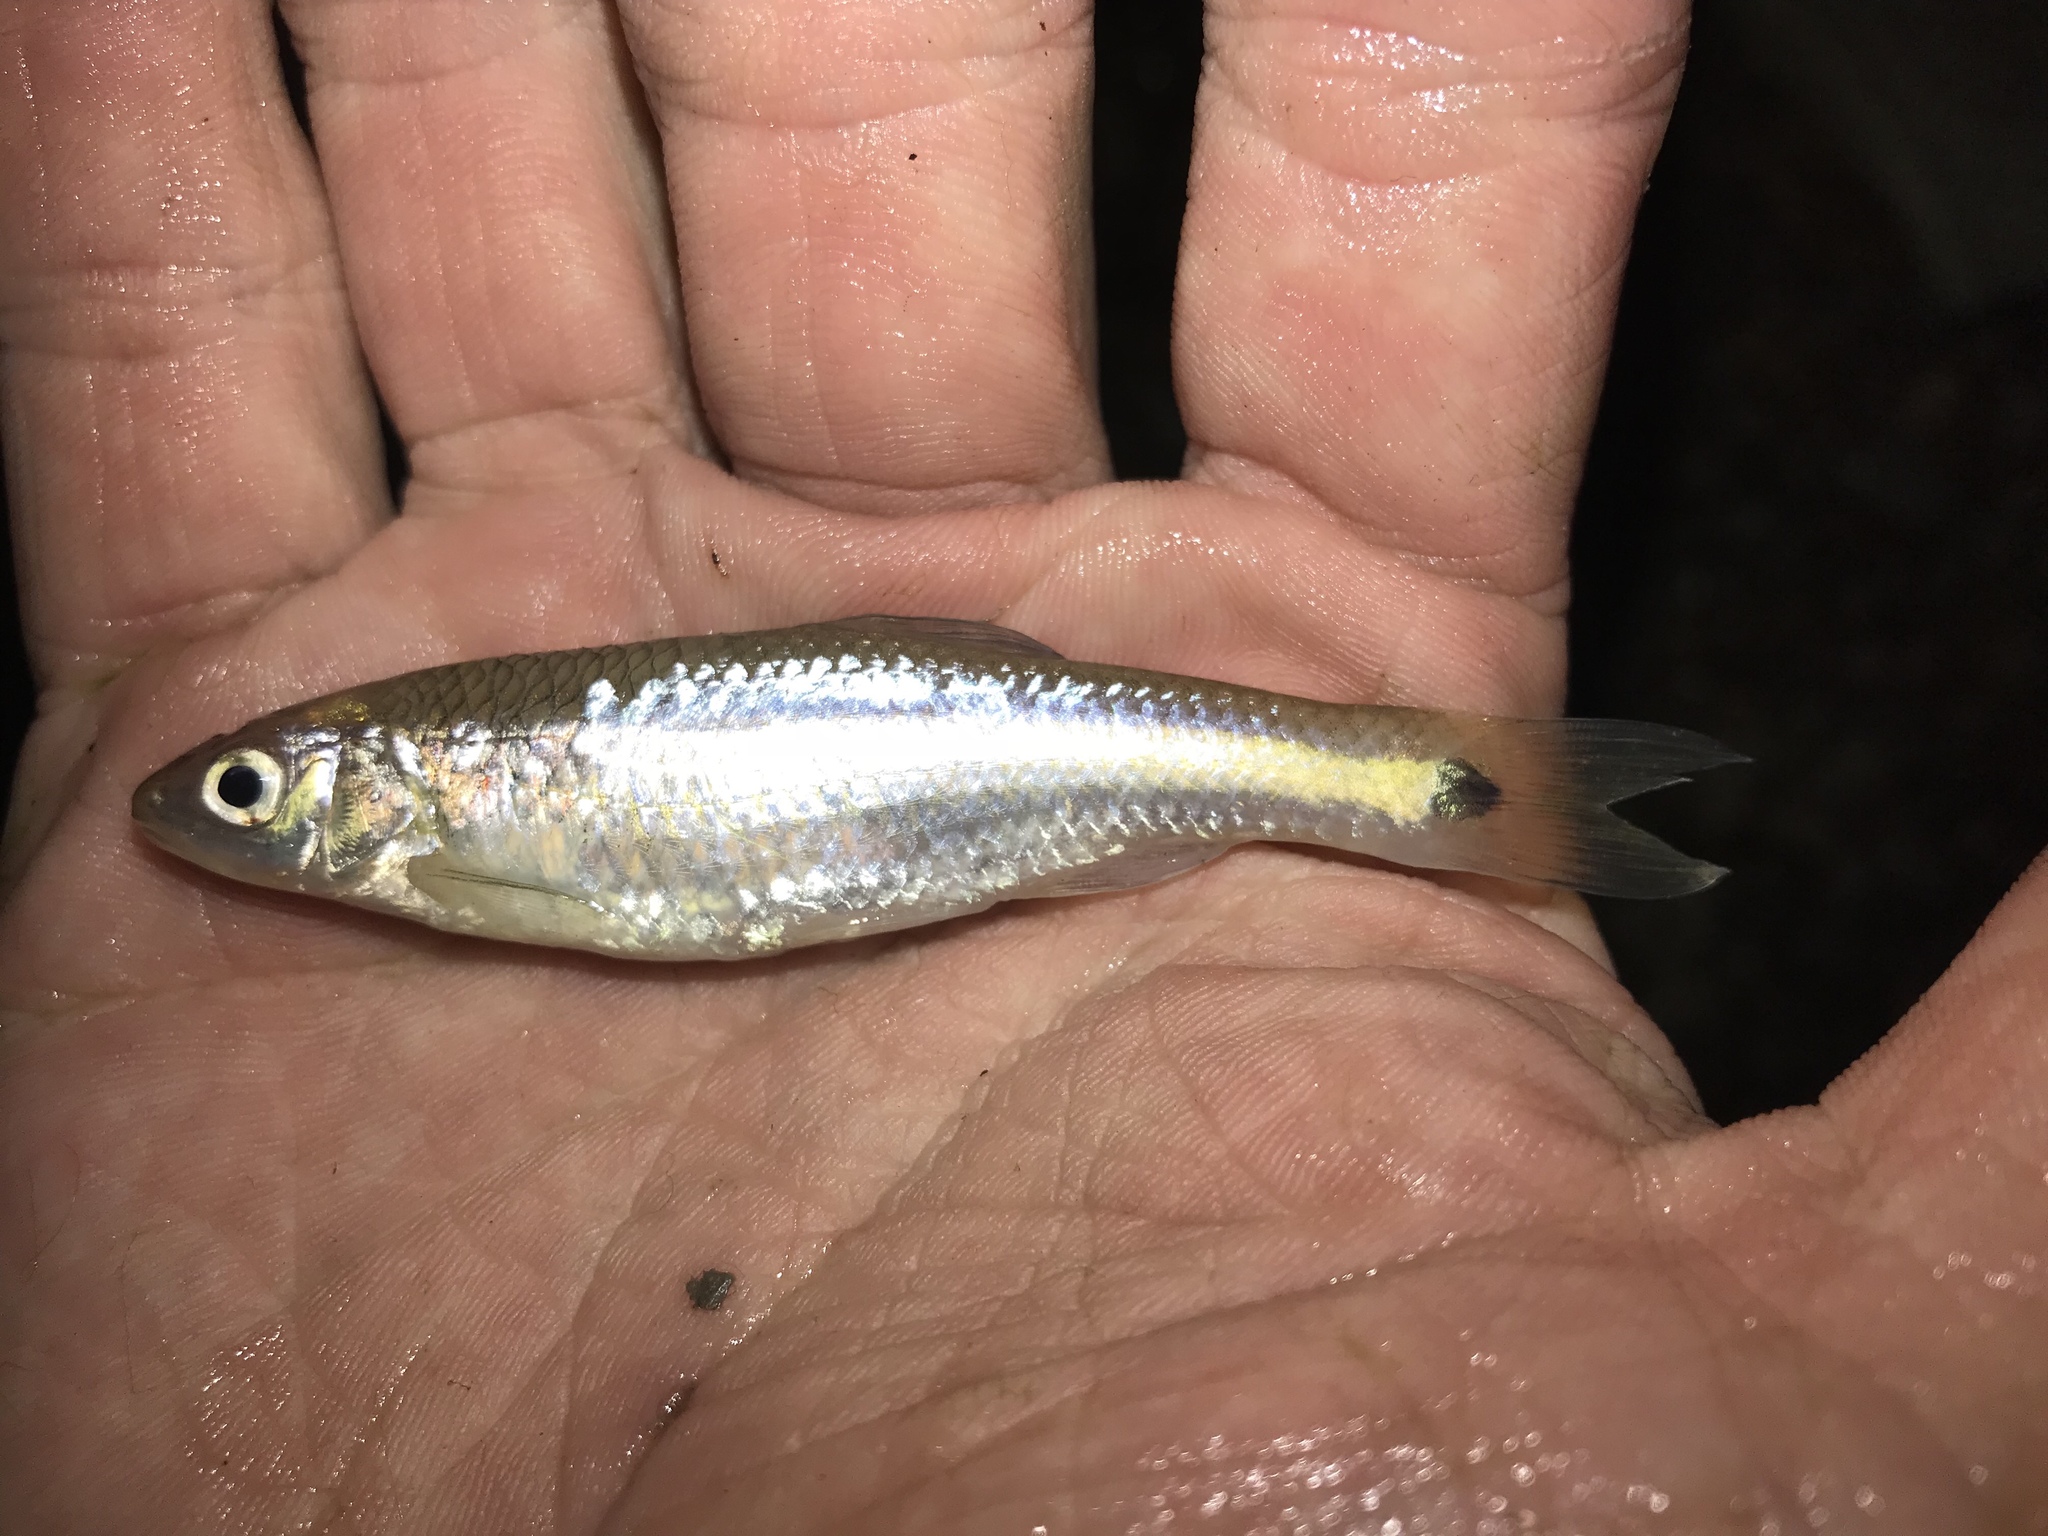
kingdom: Animalia
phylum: Chordata
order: Cypriniformes
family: Cyprinidae
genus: Cyprinella
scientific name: Cyprinella venusta
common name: Blacktail shiner
